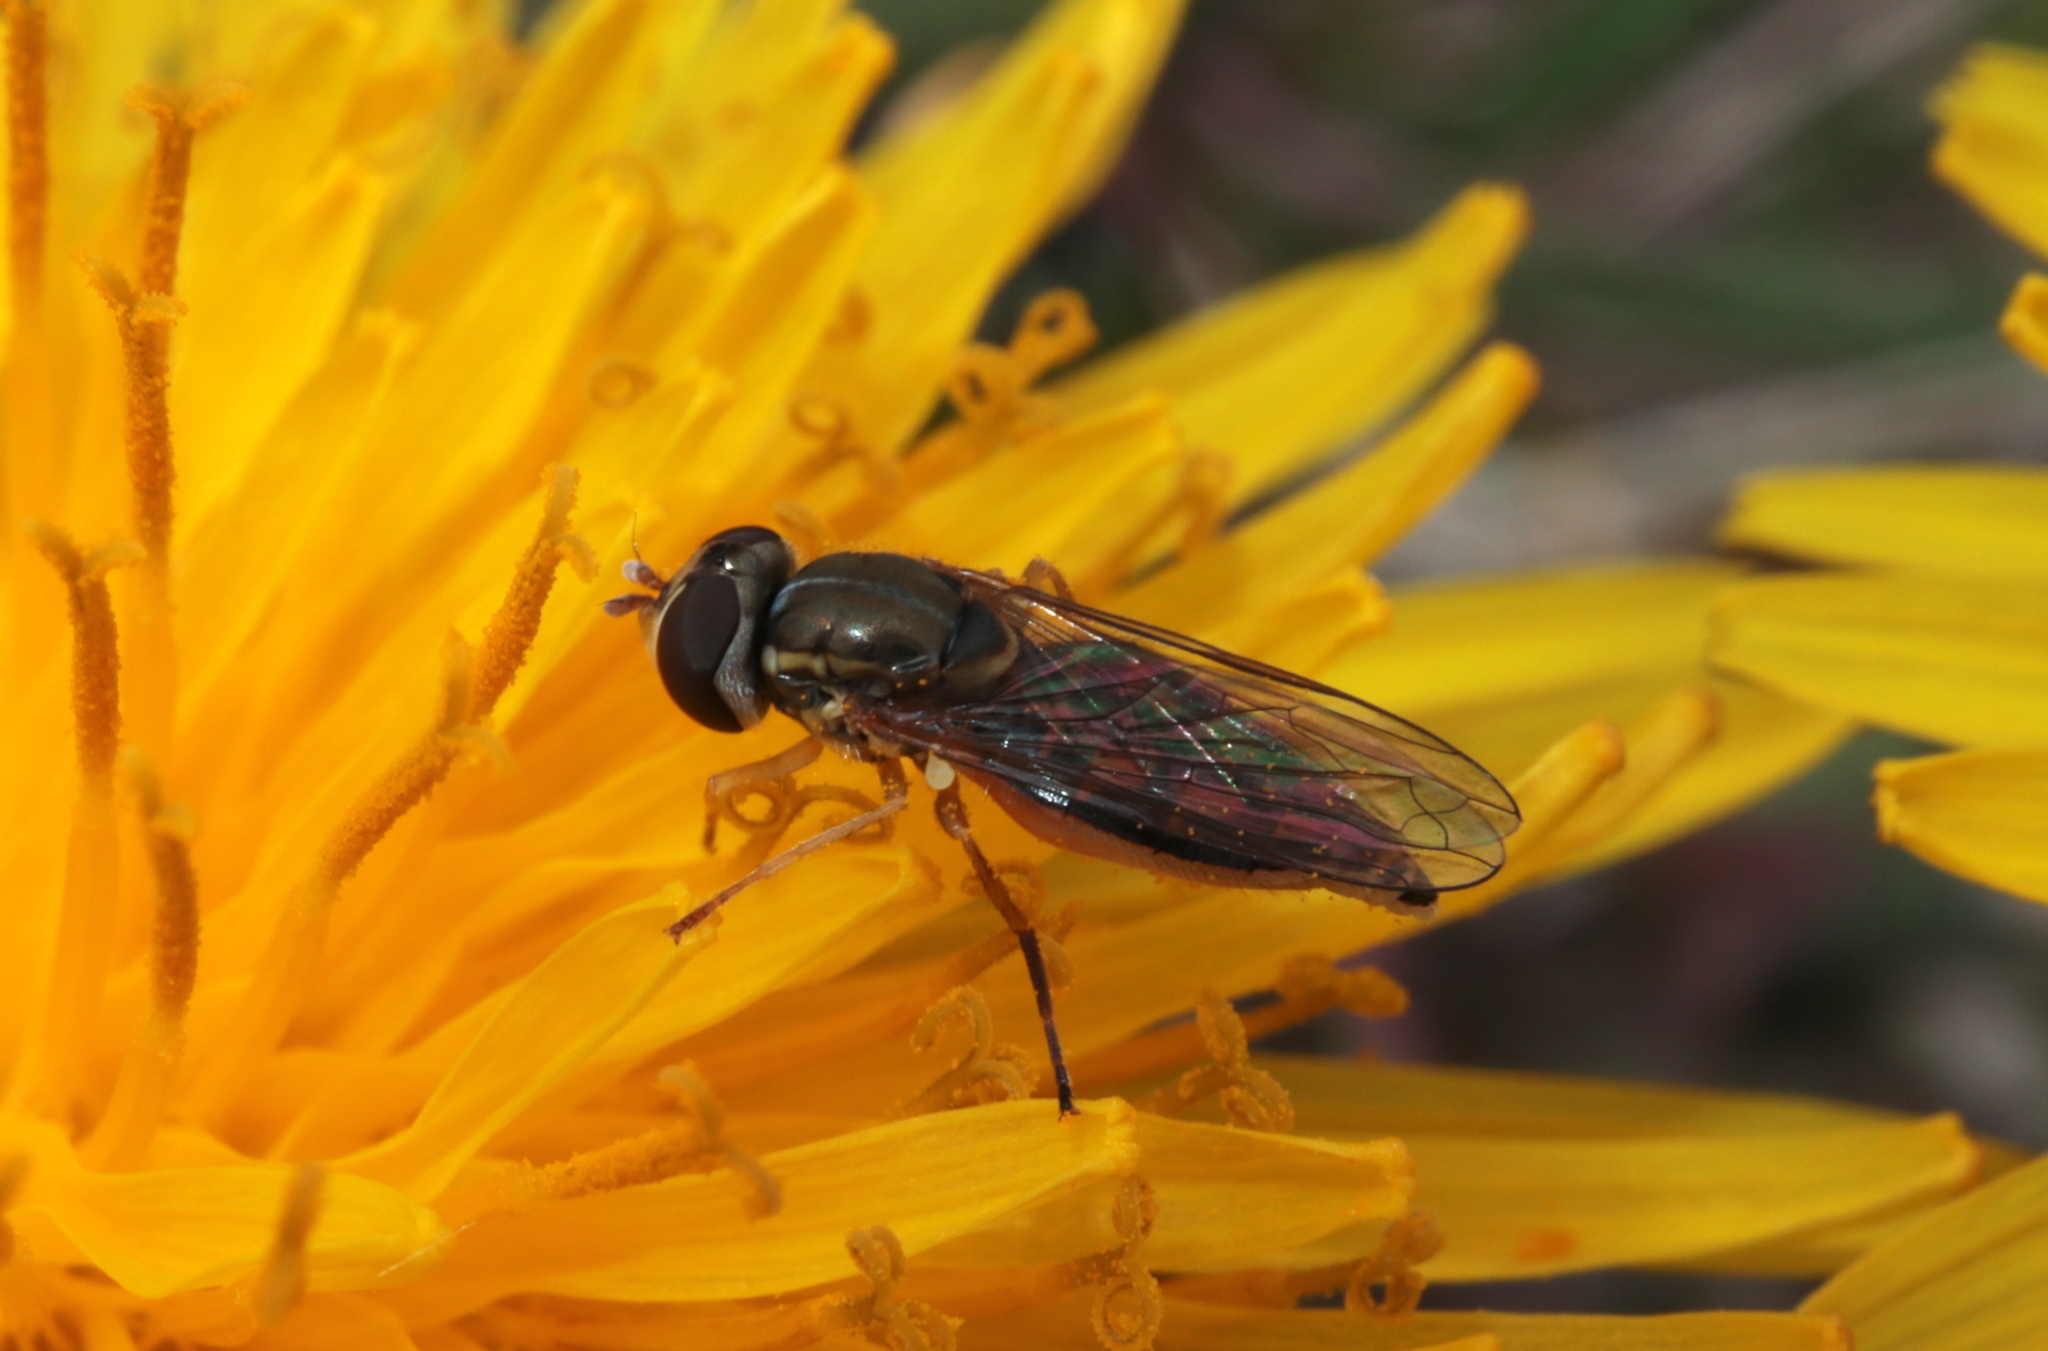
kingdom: Animalia
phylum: Arthropoda
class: Insecta
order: Diptera
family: Syrphidae
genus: Toxomerus
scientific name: Toxomerus marginatus
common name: Syrphid fly
